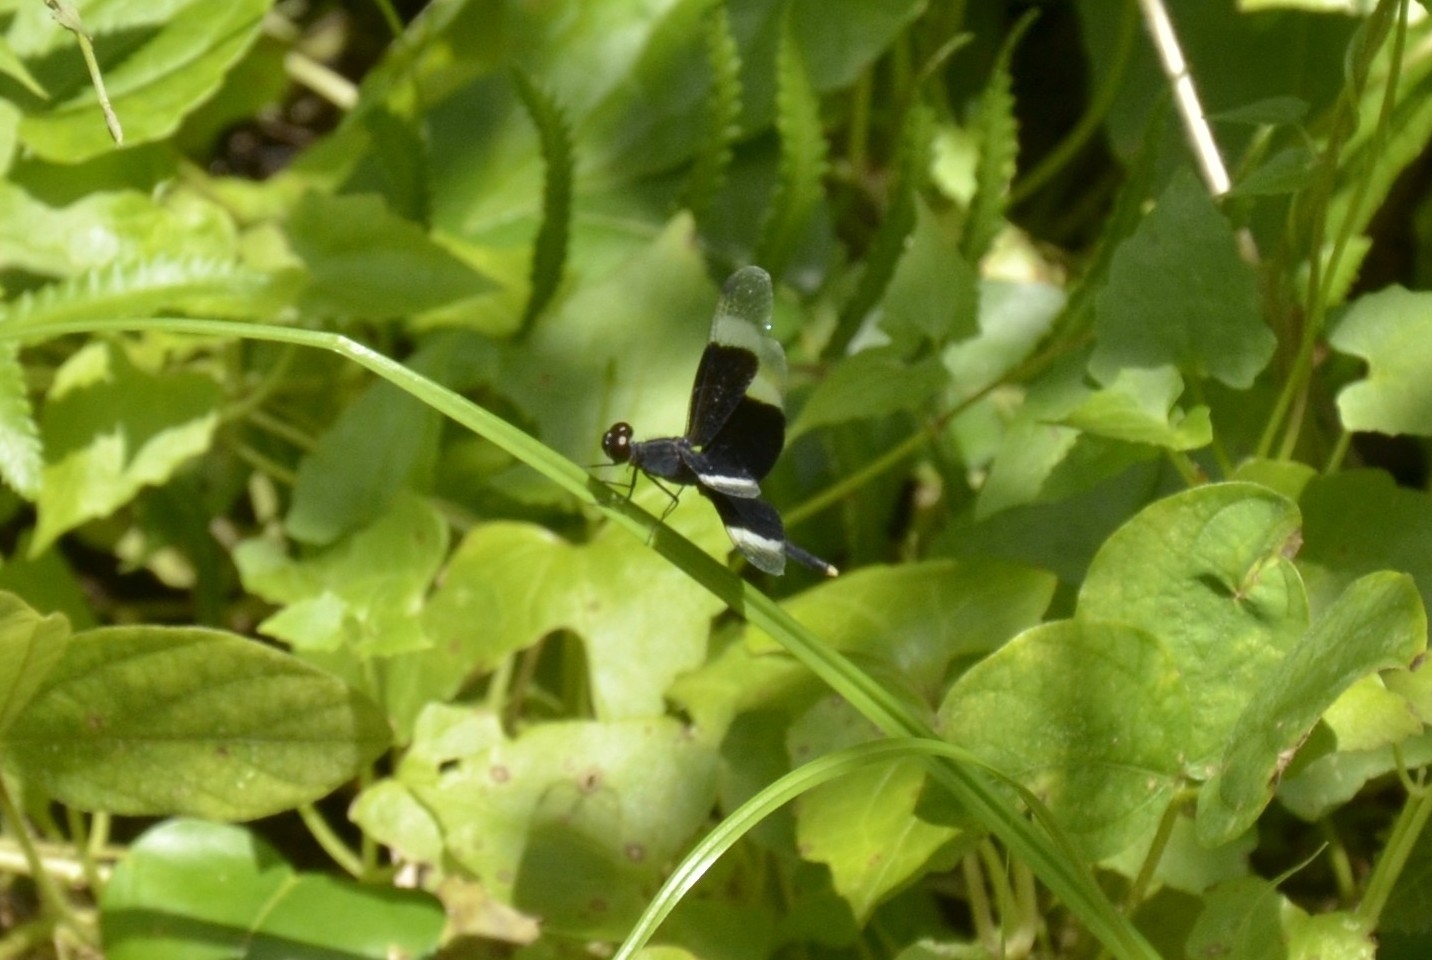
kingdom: Animalia
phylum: Arthropoda
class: Insecta
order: Odonata
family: Libellulidae
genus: Neurothemis
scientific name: Neurothemis tullia
